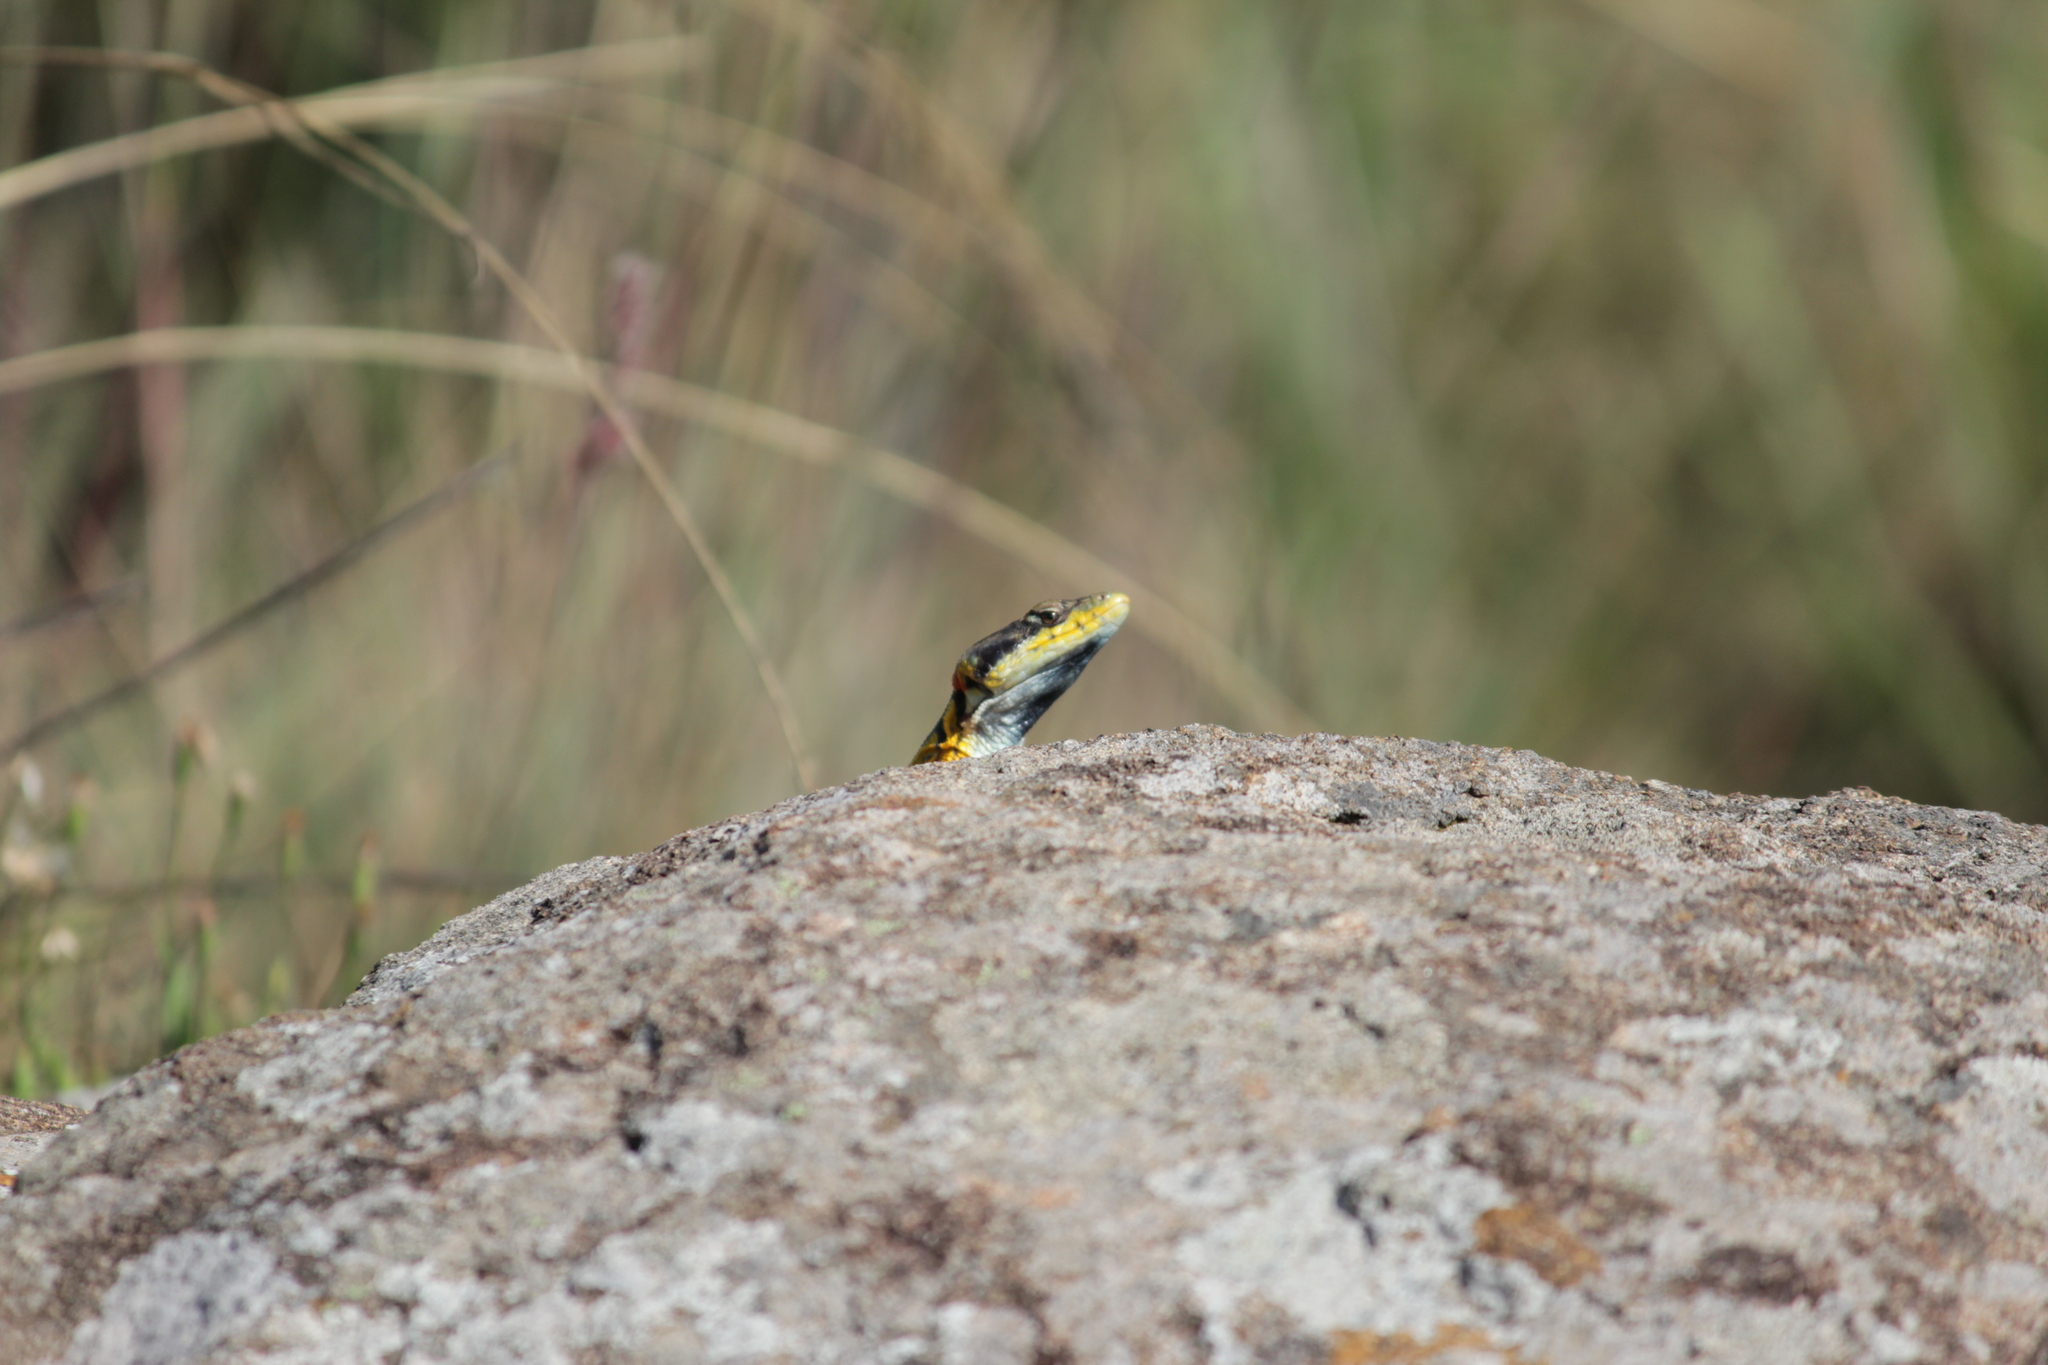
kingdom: Animalia
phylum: Chordata
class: Squamata
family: Cordylidae
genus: Pseudocordylus
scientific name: Pseudocordylus subviridis
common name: Drakensberg crag lizard
